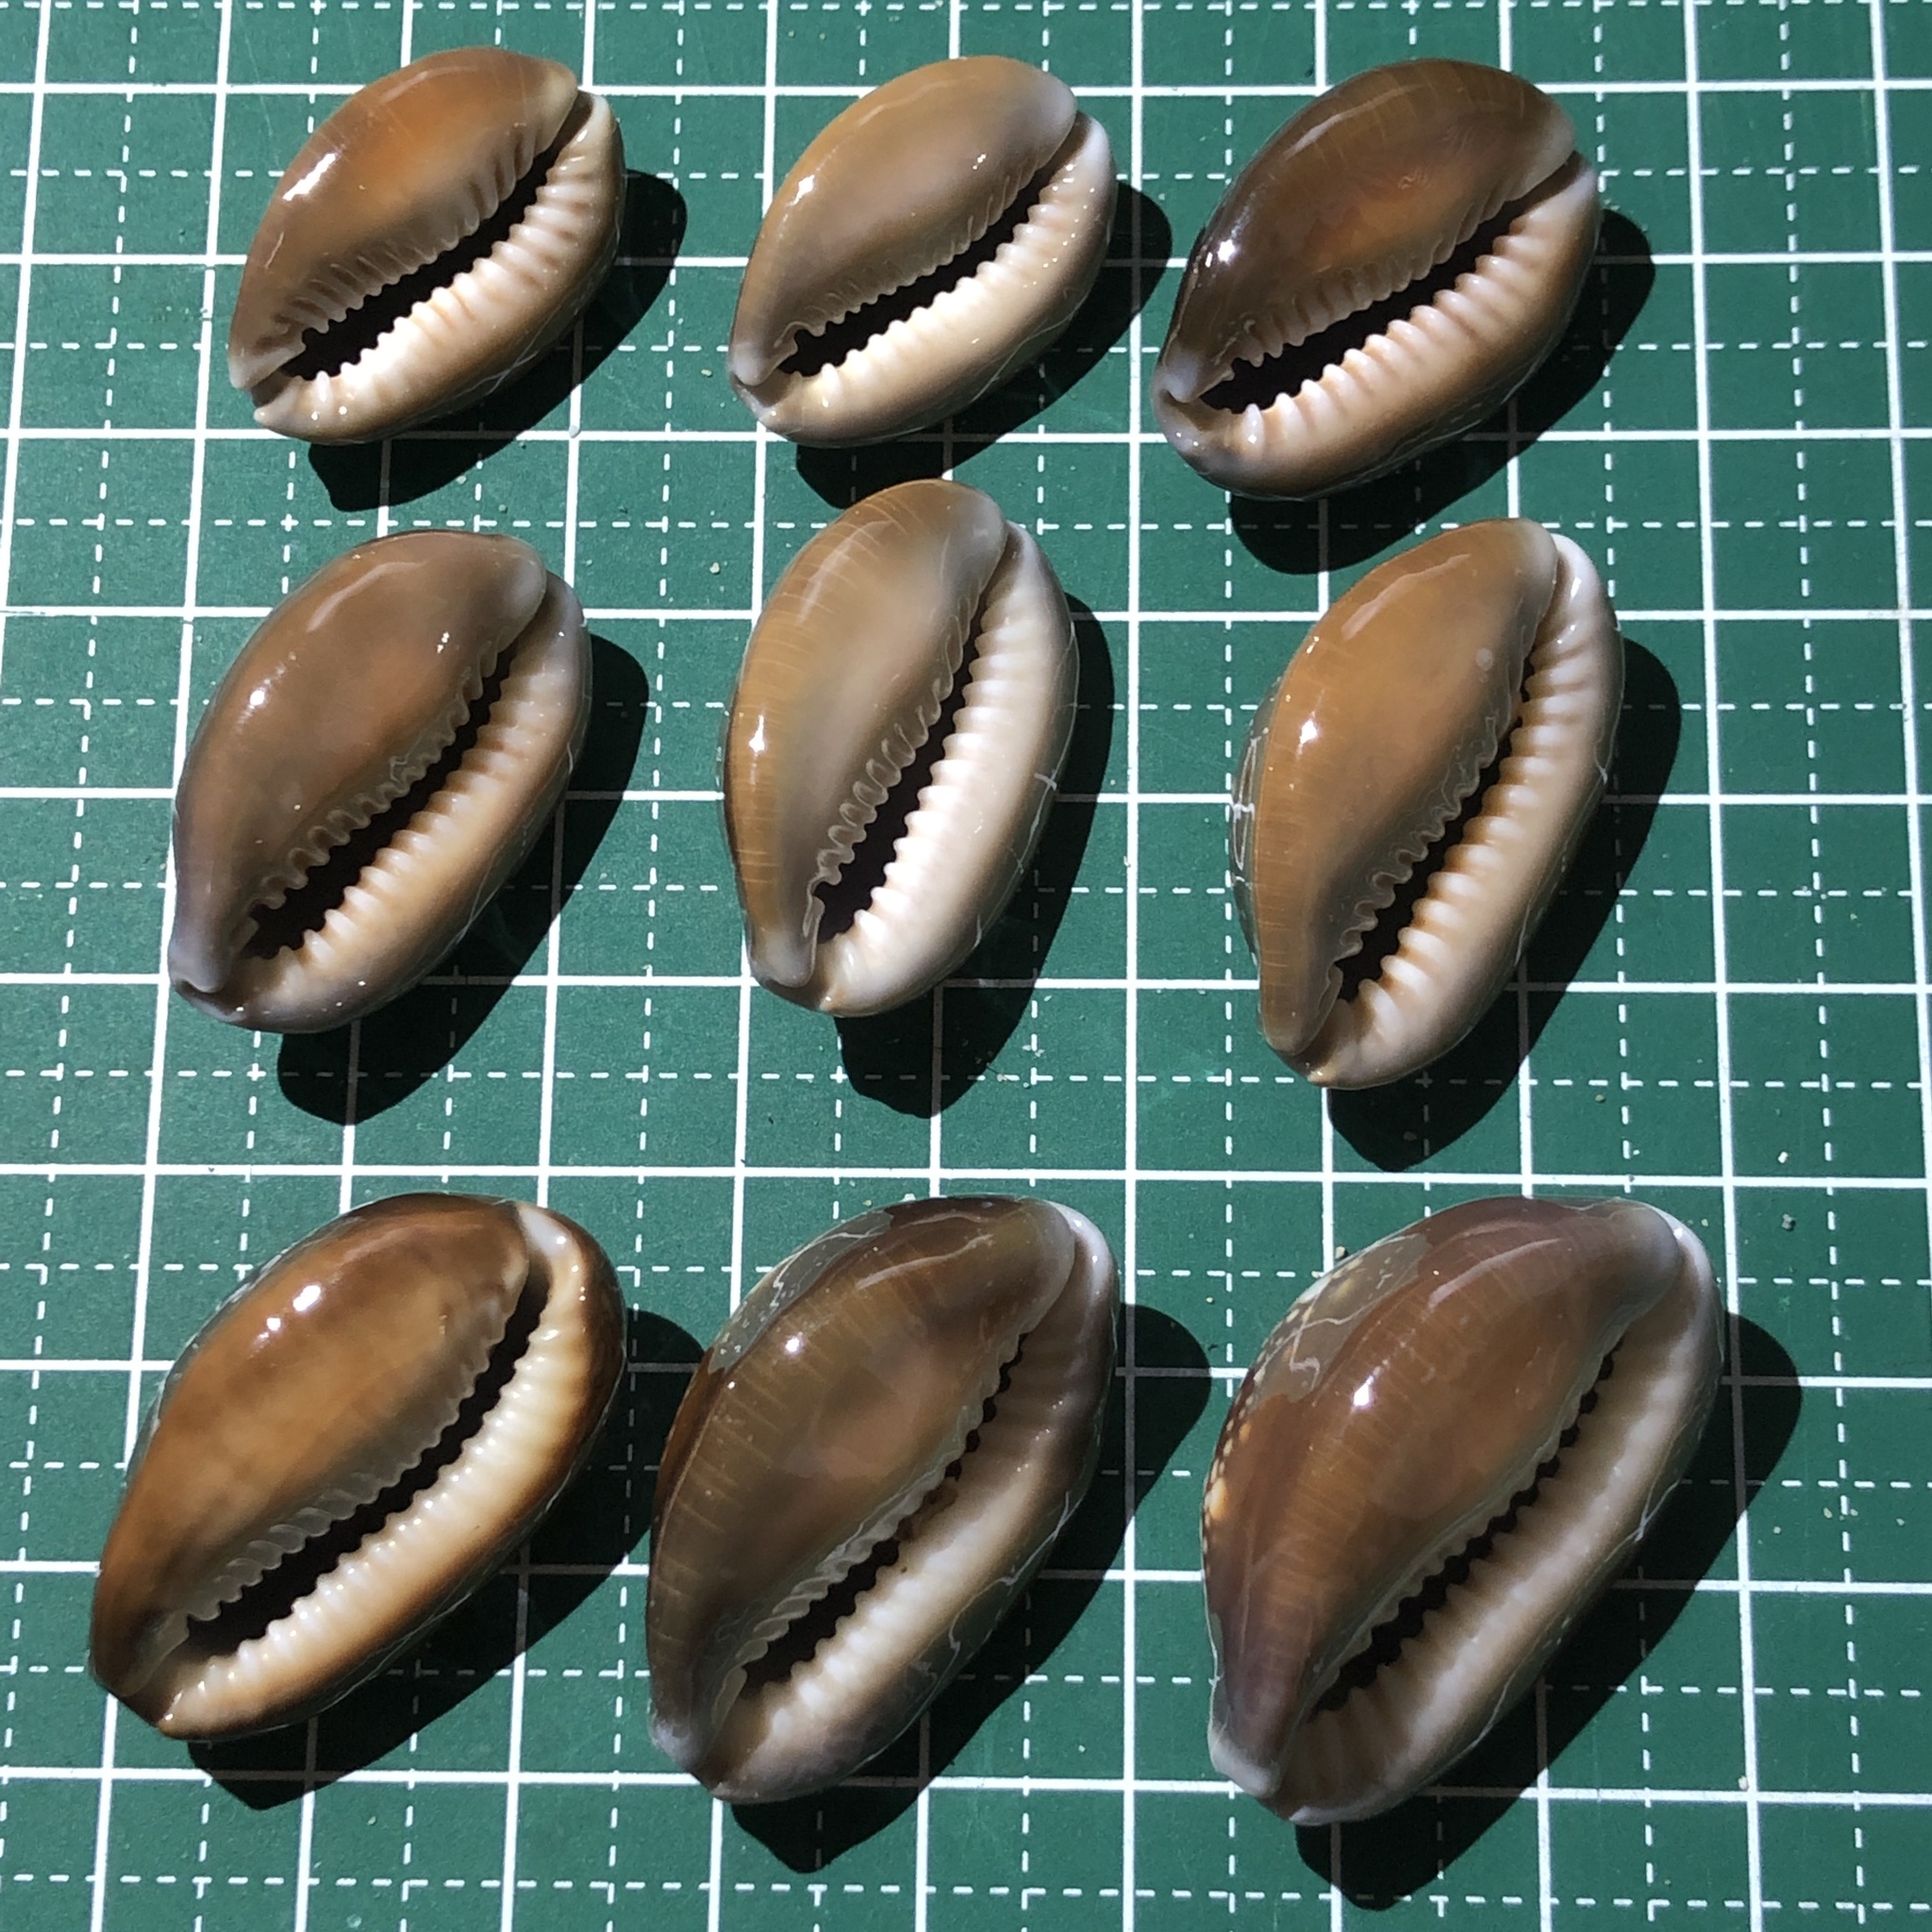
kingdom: Animalia
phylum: Mollusca
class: Gastropoda
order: Littorinimorpha
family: Cypraeidae
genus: Monetaria
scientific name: Monetaria caputserpentis
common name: Serpent's head cowrie
